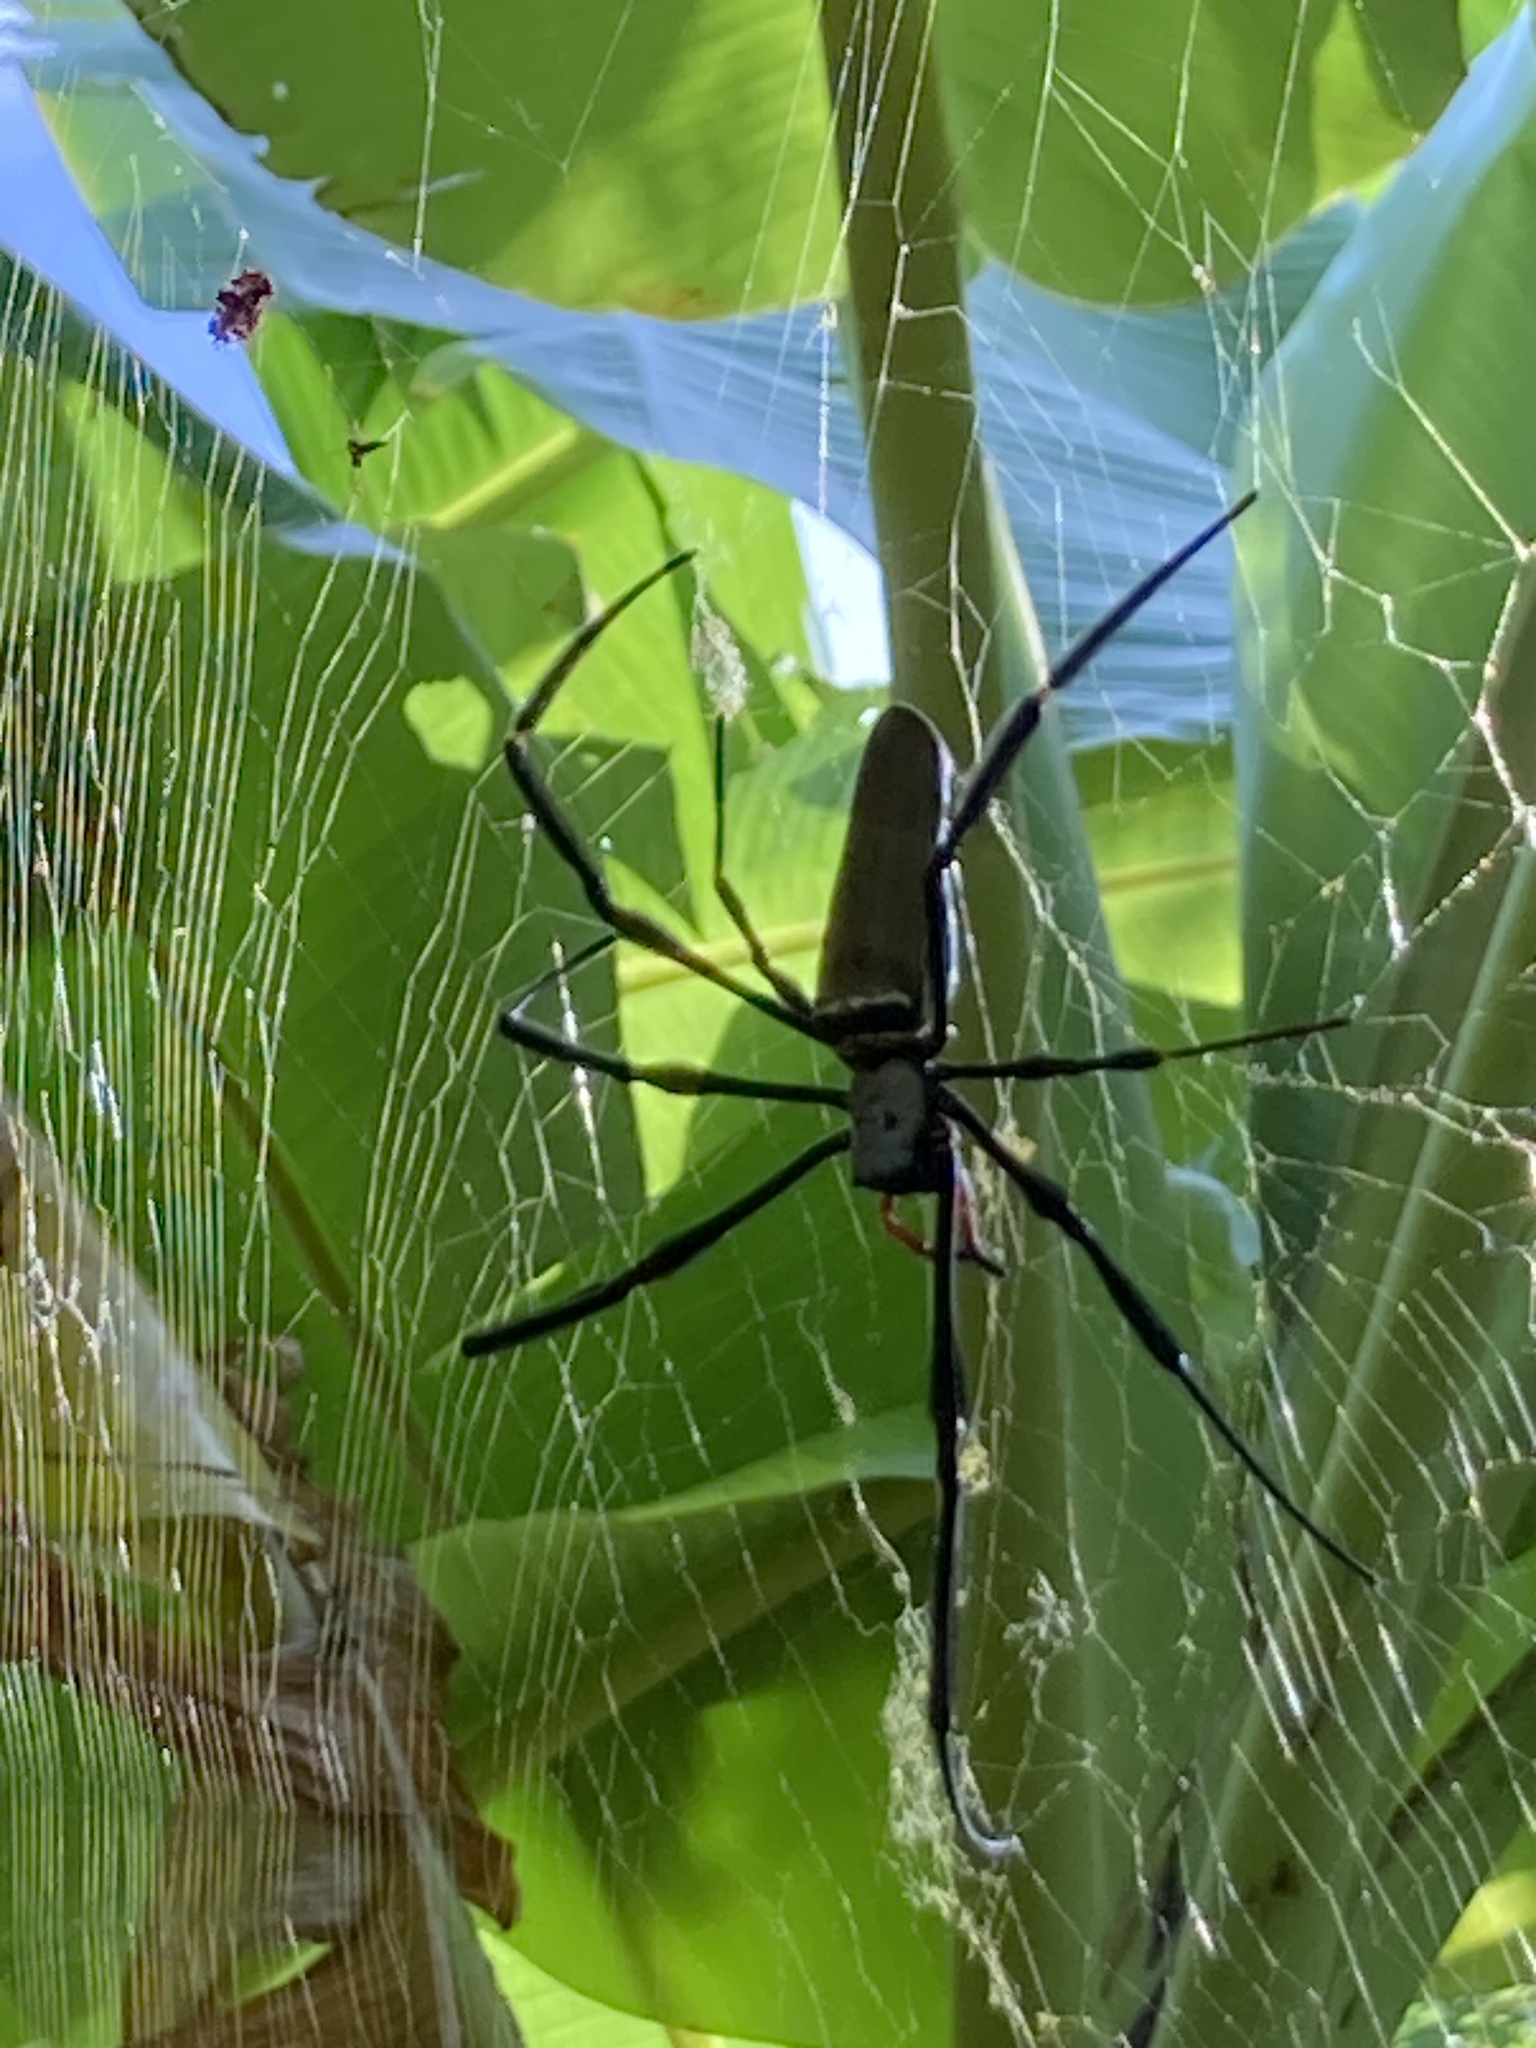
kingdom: Animalia
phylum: Arthropoda
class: Arachnida
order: Araneae
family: Araneidae
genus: Nephila
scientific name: Nephila pilipes
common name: Giant golden orb weaver
